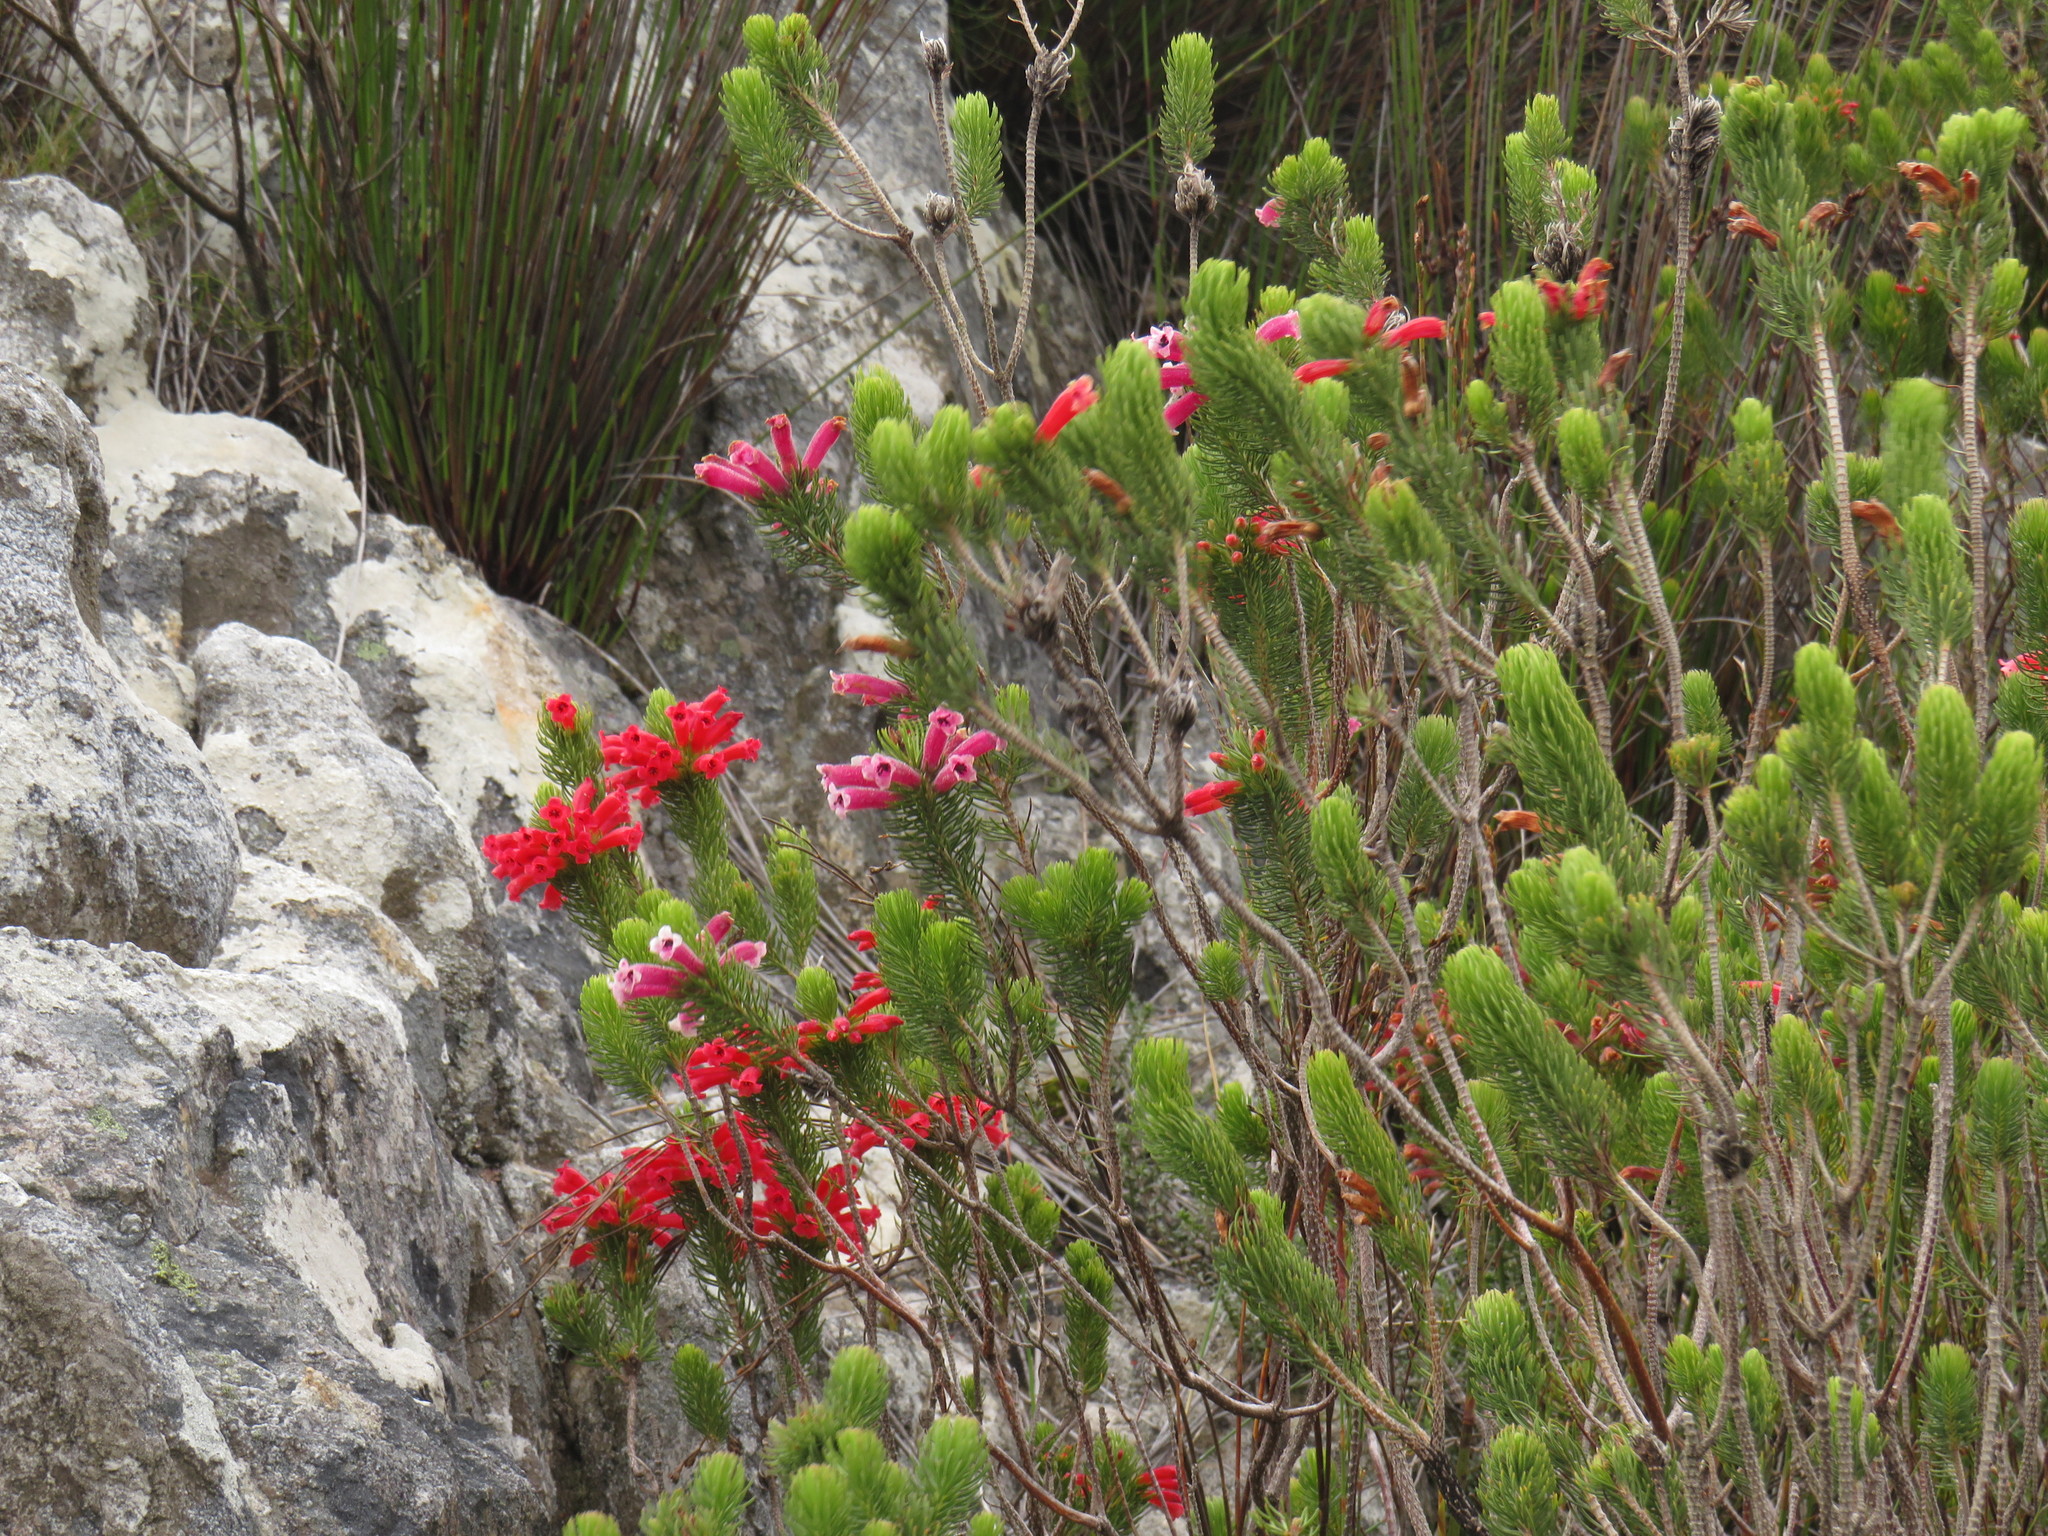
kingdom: Plantae
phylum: Tracheophyta
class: Magnoliopsida
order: Ericales
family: Ericaceae
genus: Erica
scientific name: Erica viscaria
